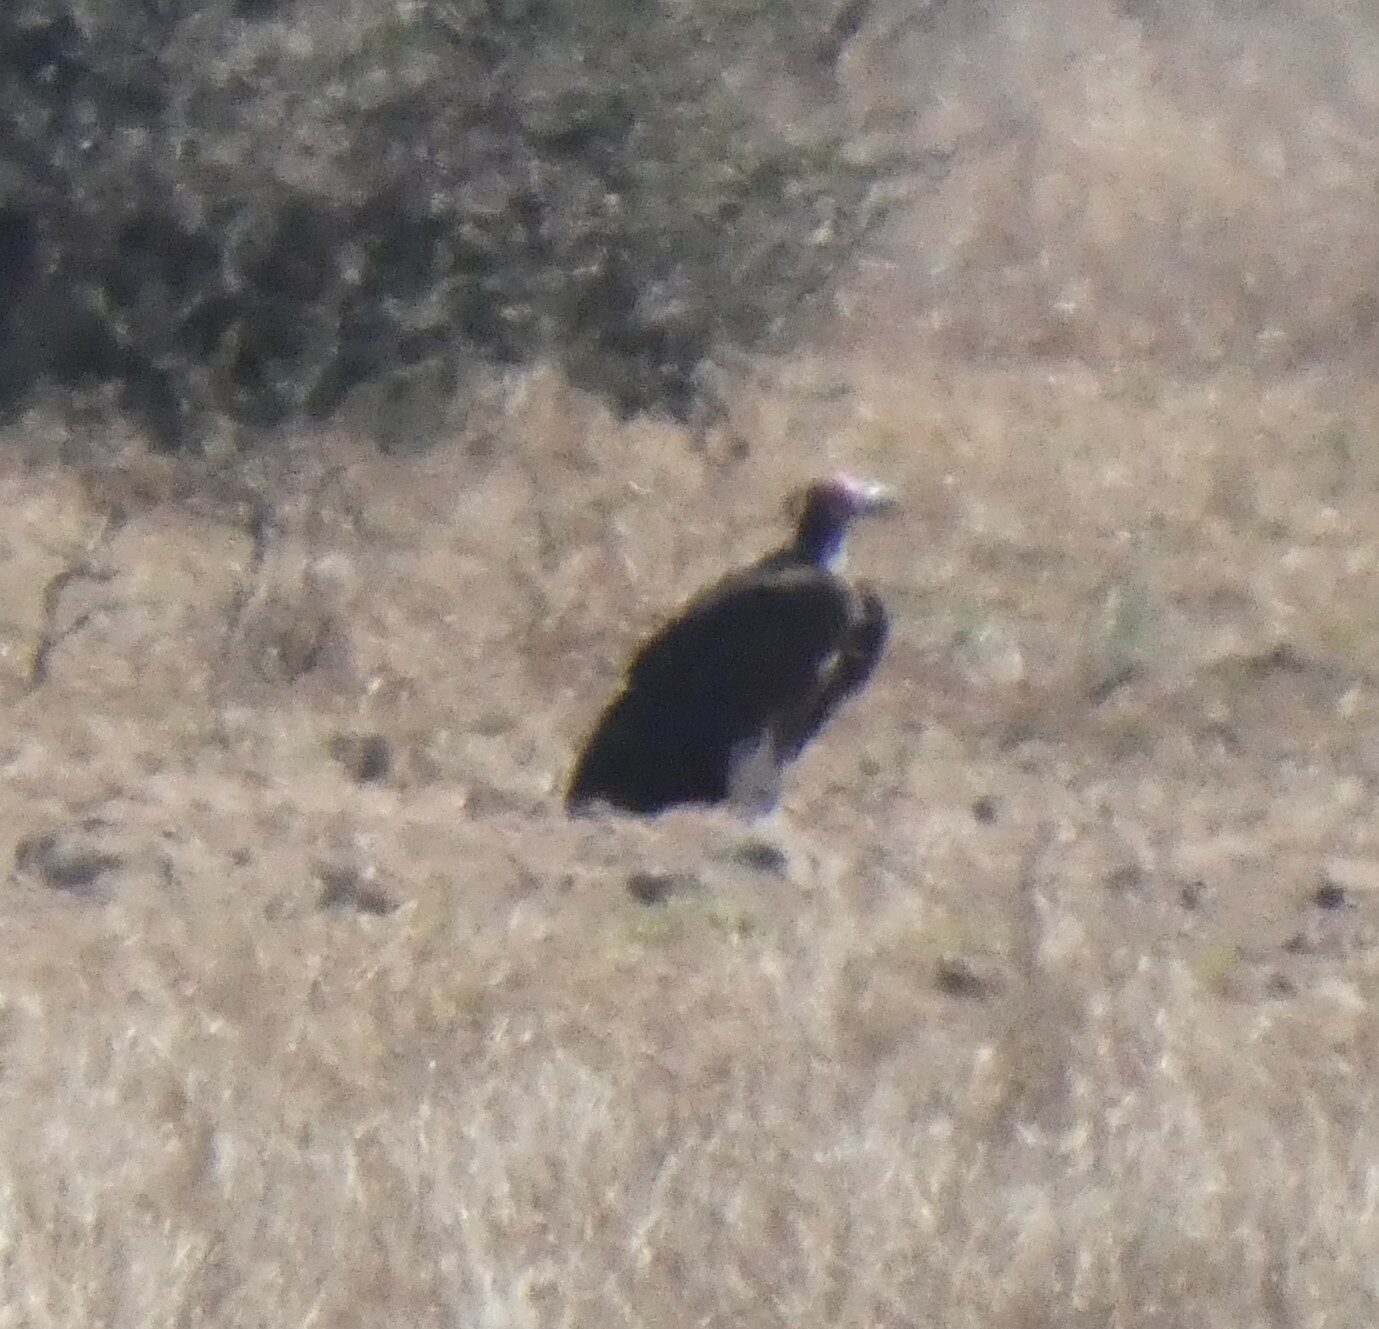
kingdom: Animalia
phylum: Chordata
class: Aves
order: Accipitriformes
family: Accipitridae
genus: Torgos
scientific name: Torgos tracheliotos
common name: Lappet-faced vulture
